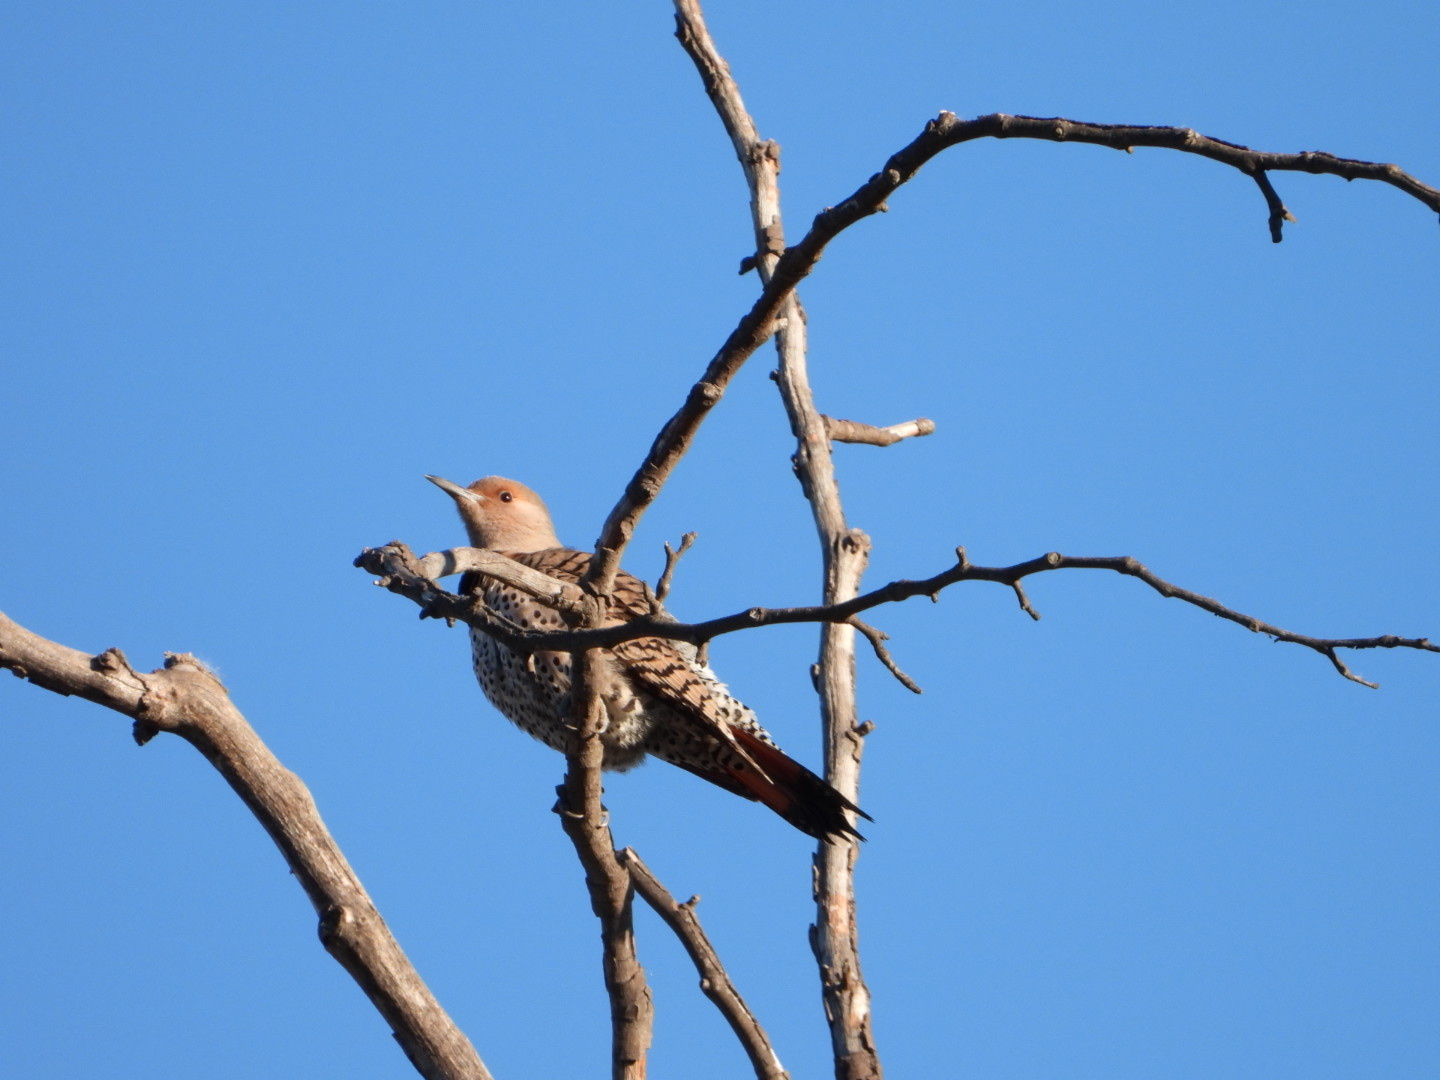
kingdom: Animalia
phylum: Chordata
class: Aves
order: Piciformes
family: Picidae
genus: Colaptes
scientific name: Colaptes auratus
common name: Northern flicker
